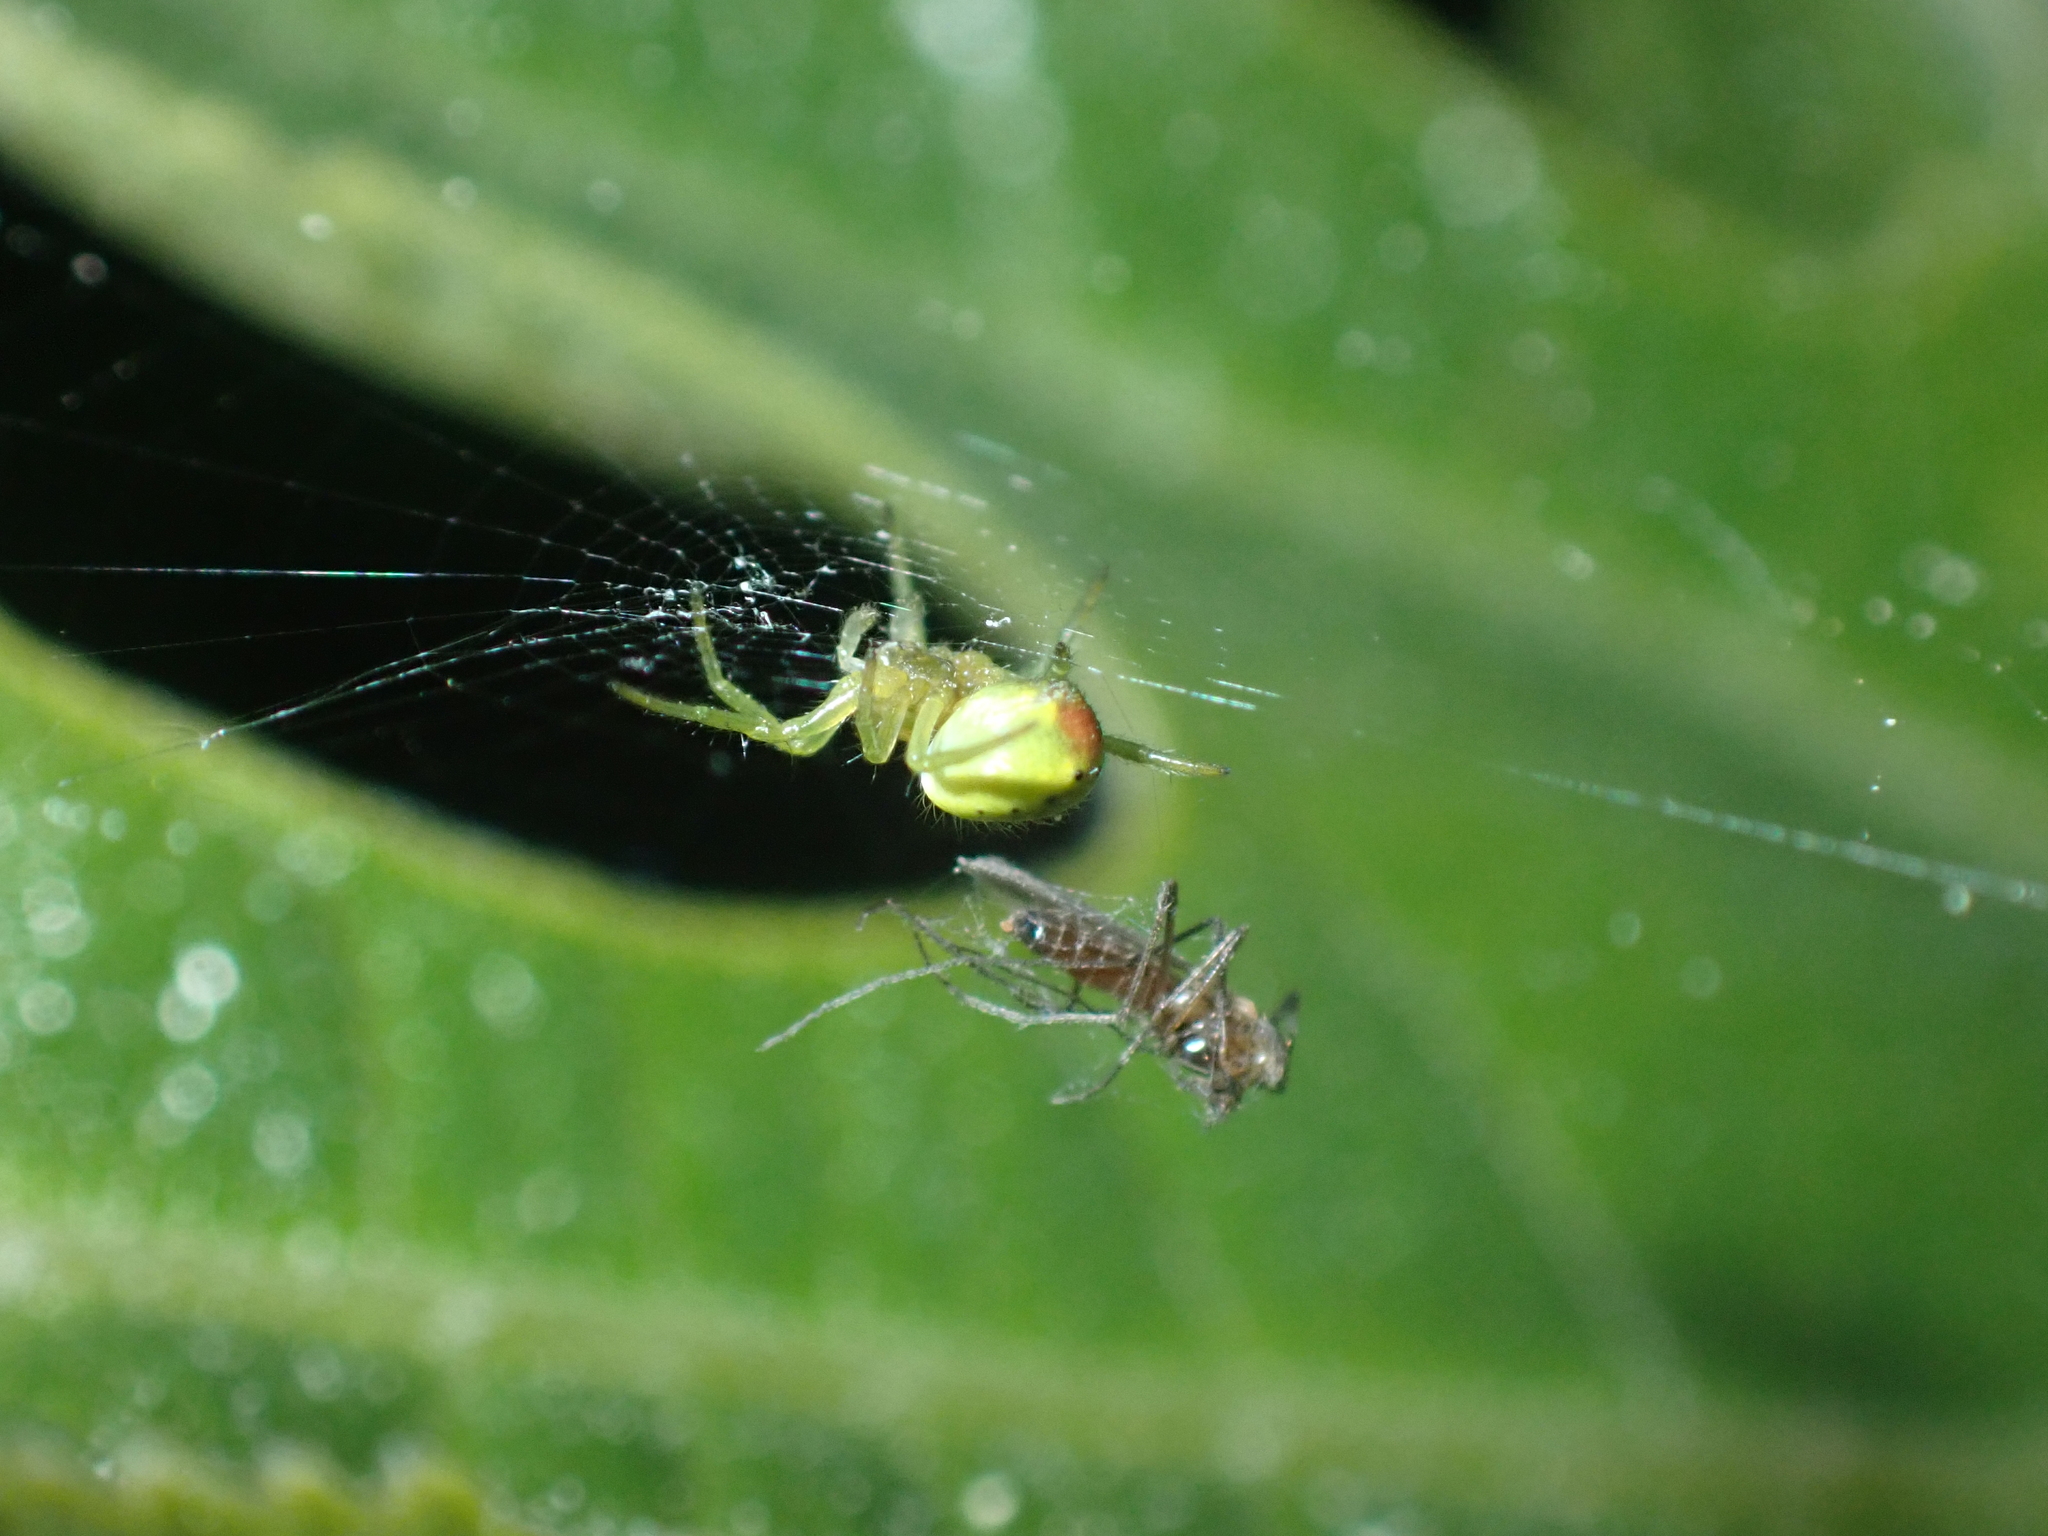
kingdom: Animalia
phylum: Arthropoda
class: Arachnida
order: Araneae
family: Araneidae
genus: Araniella
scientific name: Araniella
